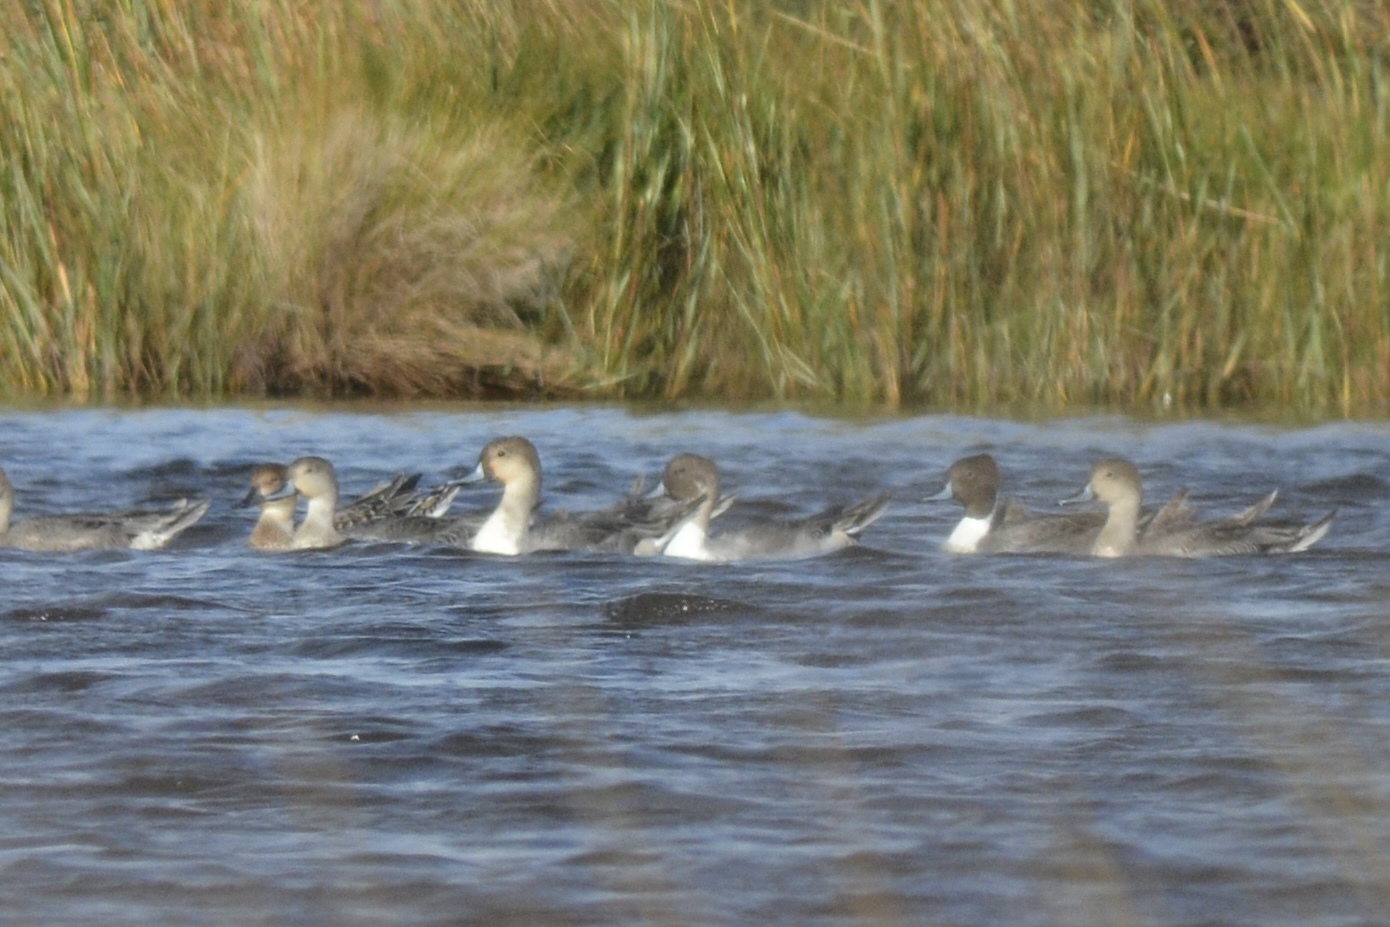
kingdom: Animalia
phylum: Chordata
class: Aves
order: Anseriformes
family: Anatidae
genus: Anas
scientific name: Anas acuta
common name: Northern pintail
